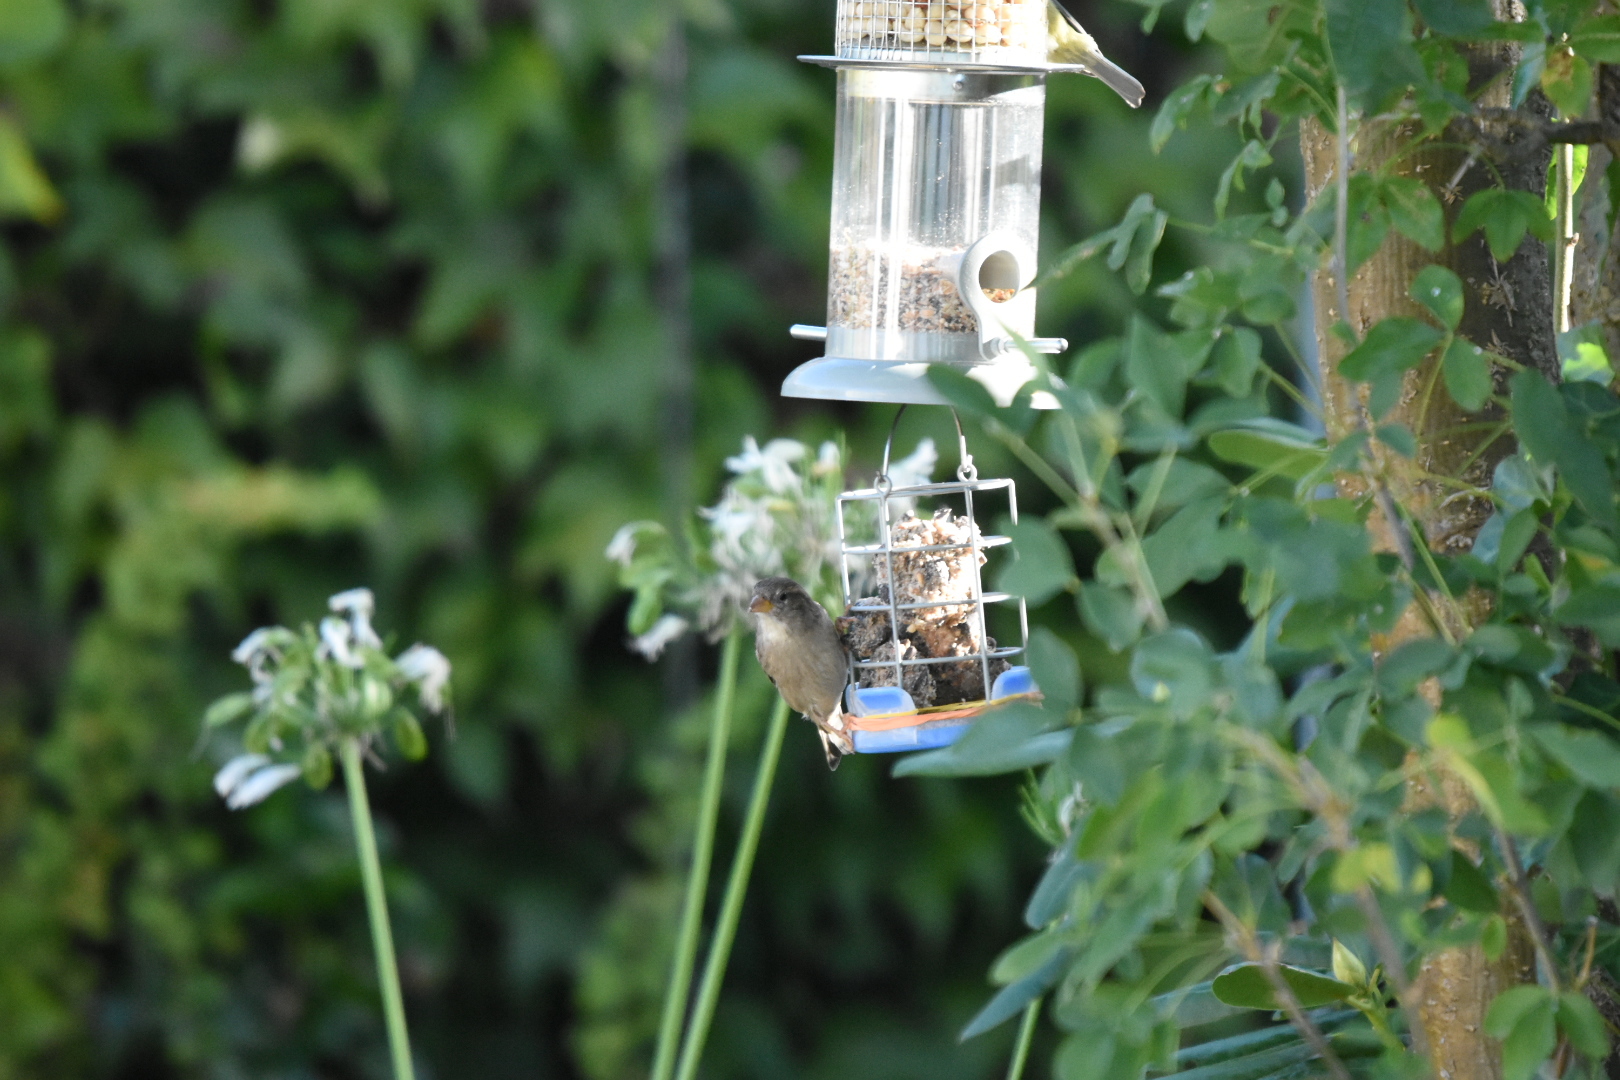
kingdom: Animalia
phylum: Chordata
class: Aves
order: Passeriformes
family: Passeridae
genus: Passer
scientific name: Passer domesticus
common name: House sparrow
